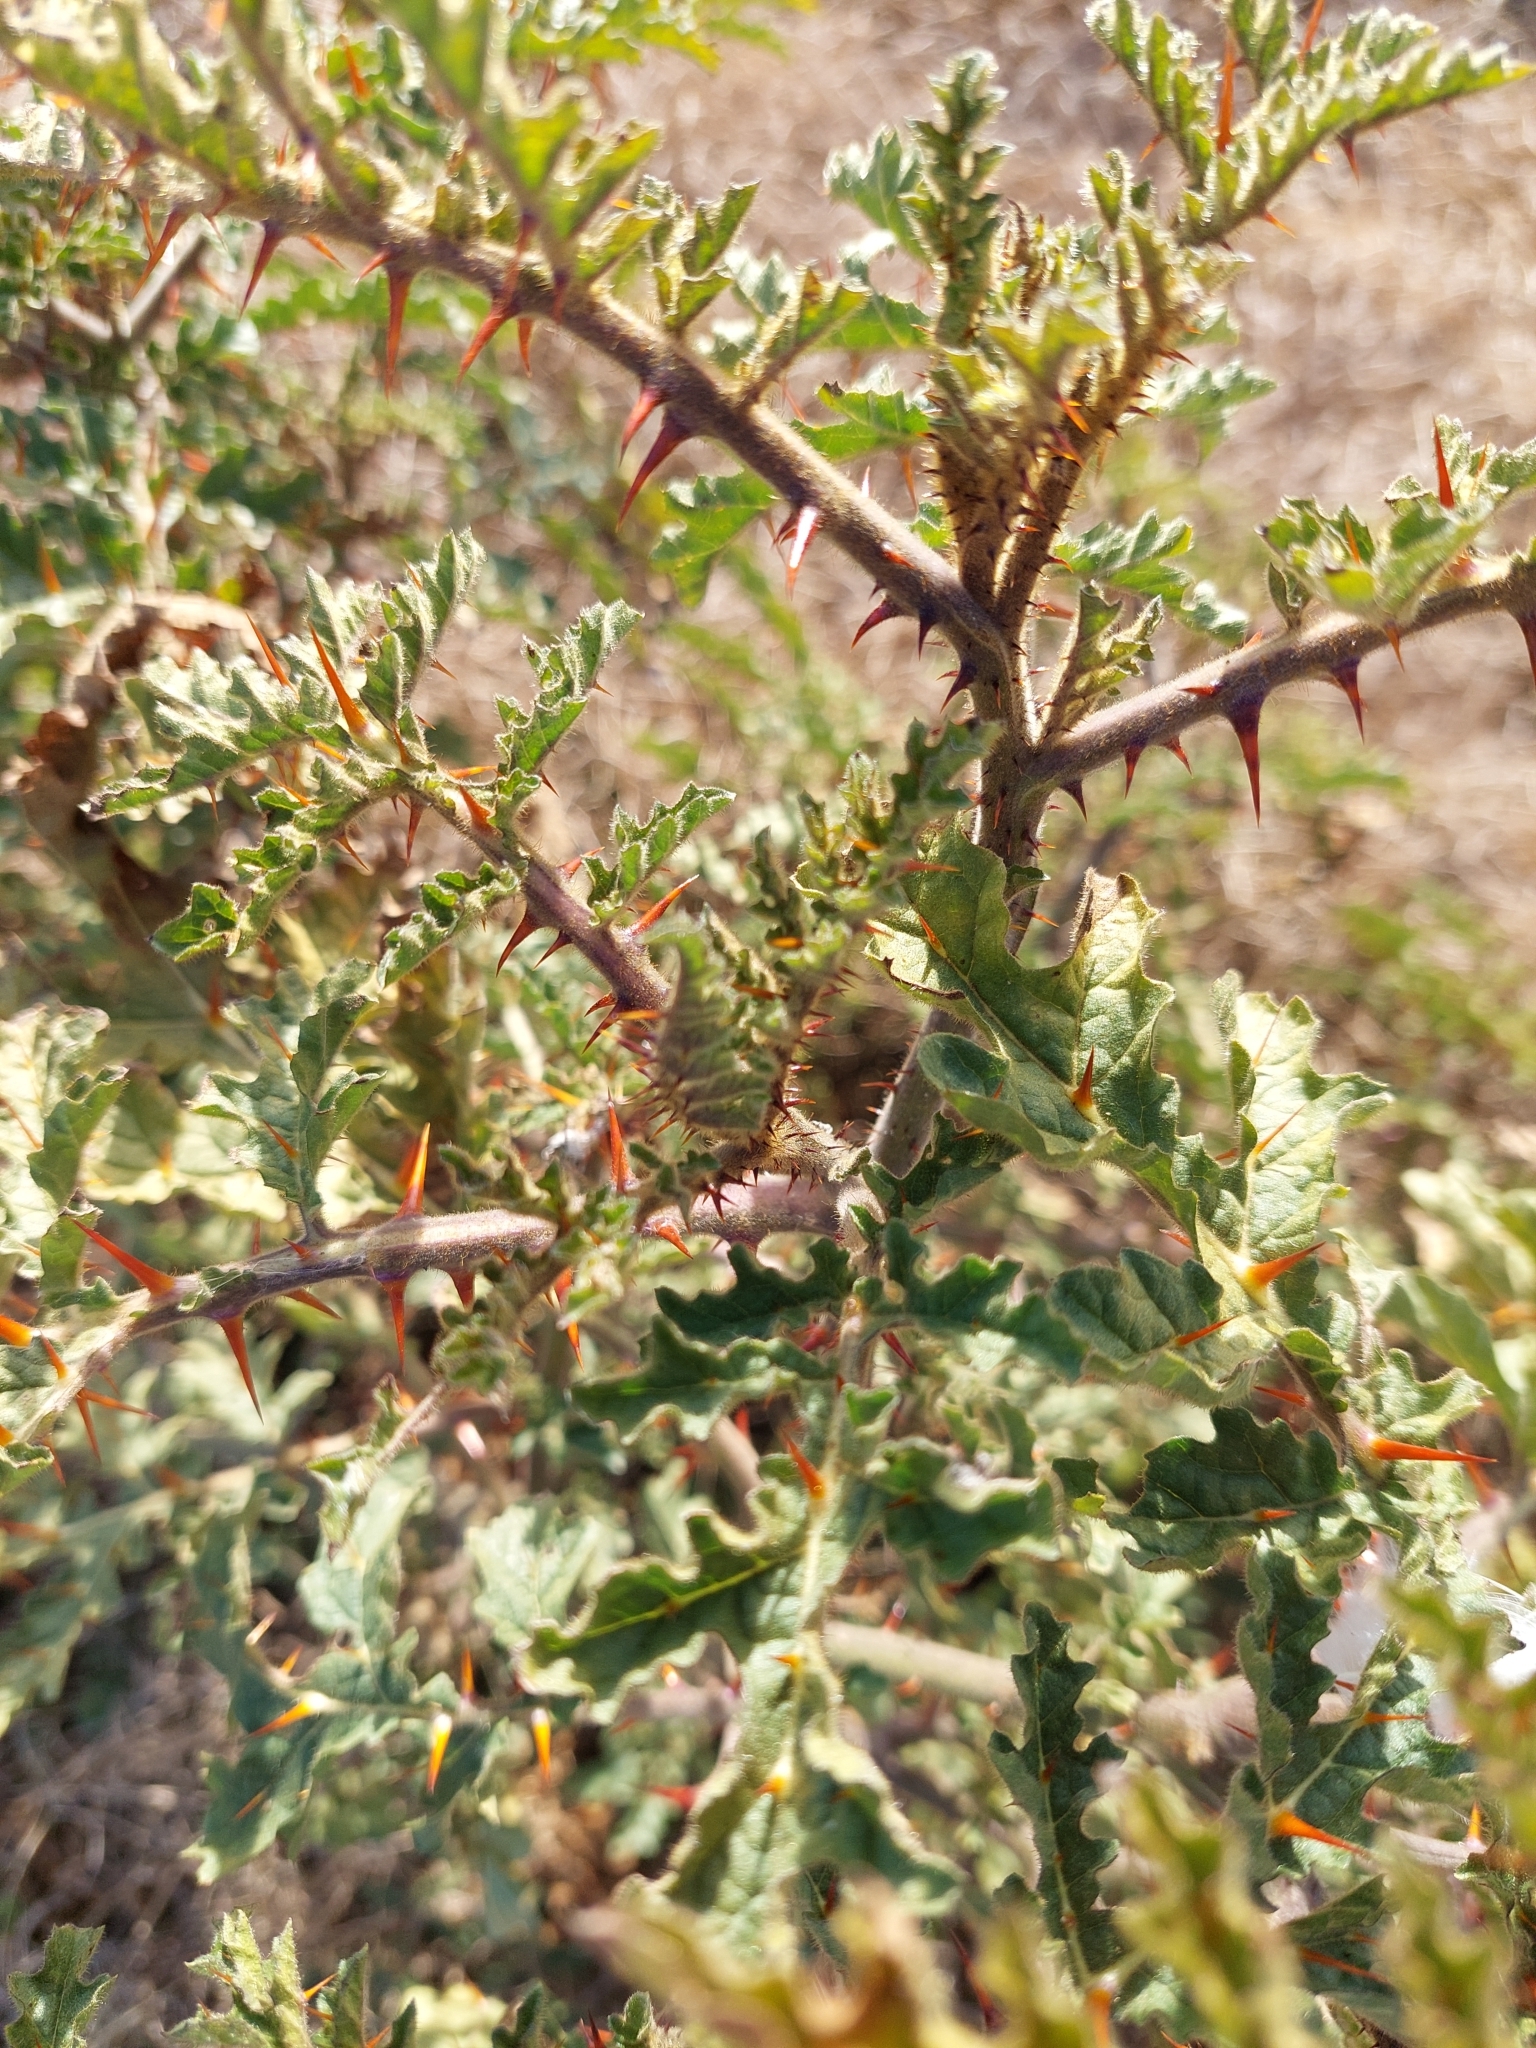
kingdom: Plantae
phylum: Tracheophyta
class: Magnoliopsida
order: Solanales
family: Solanaceae
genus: Solanum
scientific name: Solanum sisymbriifolium
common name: Red buffalo-bur
